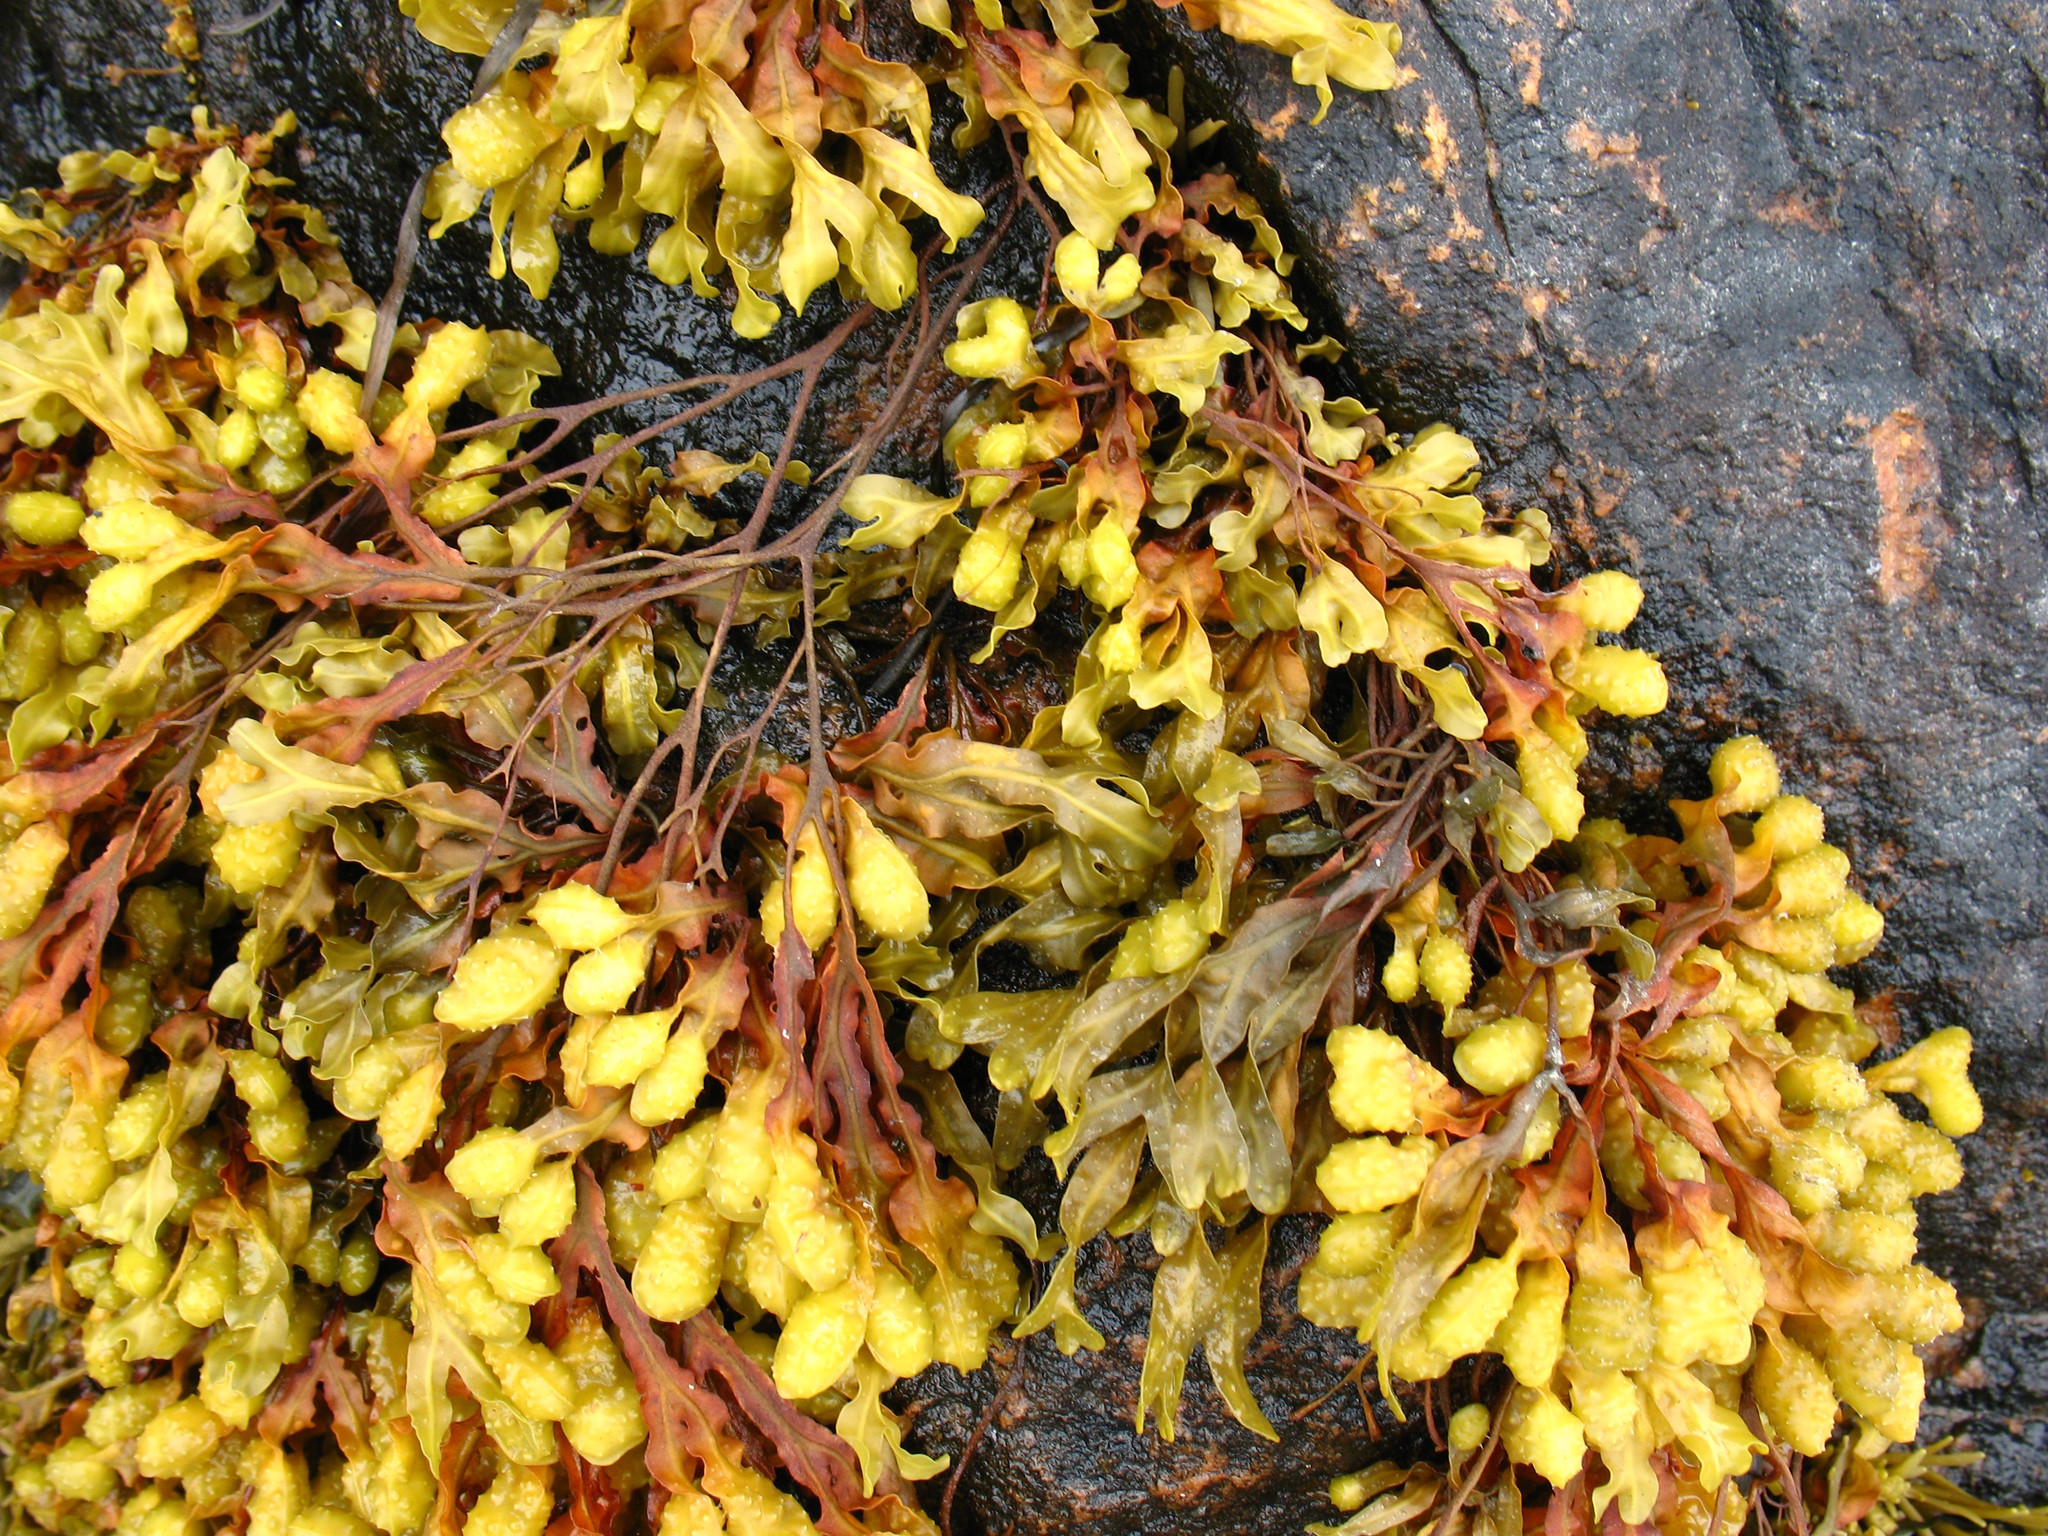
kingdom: Chromista
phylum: Ochrophyta
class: Phaeophyceae
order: Fucales
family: Fucaceae
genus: Fucus
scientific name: Fucus spiralis
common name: Spiral wrack
